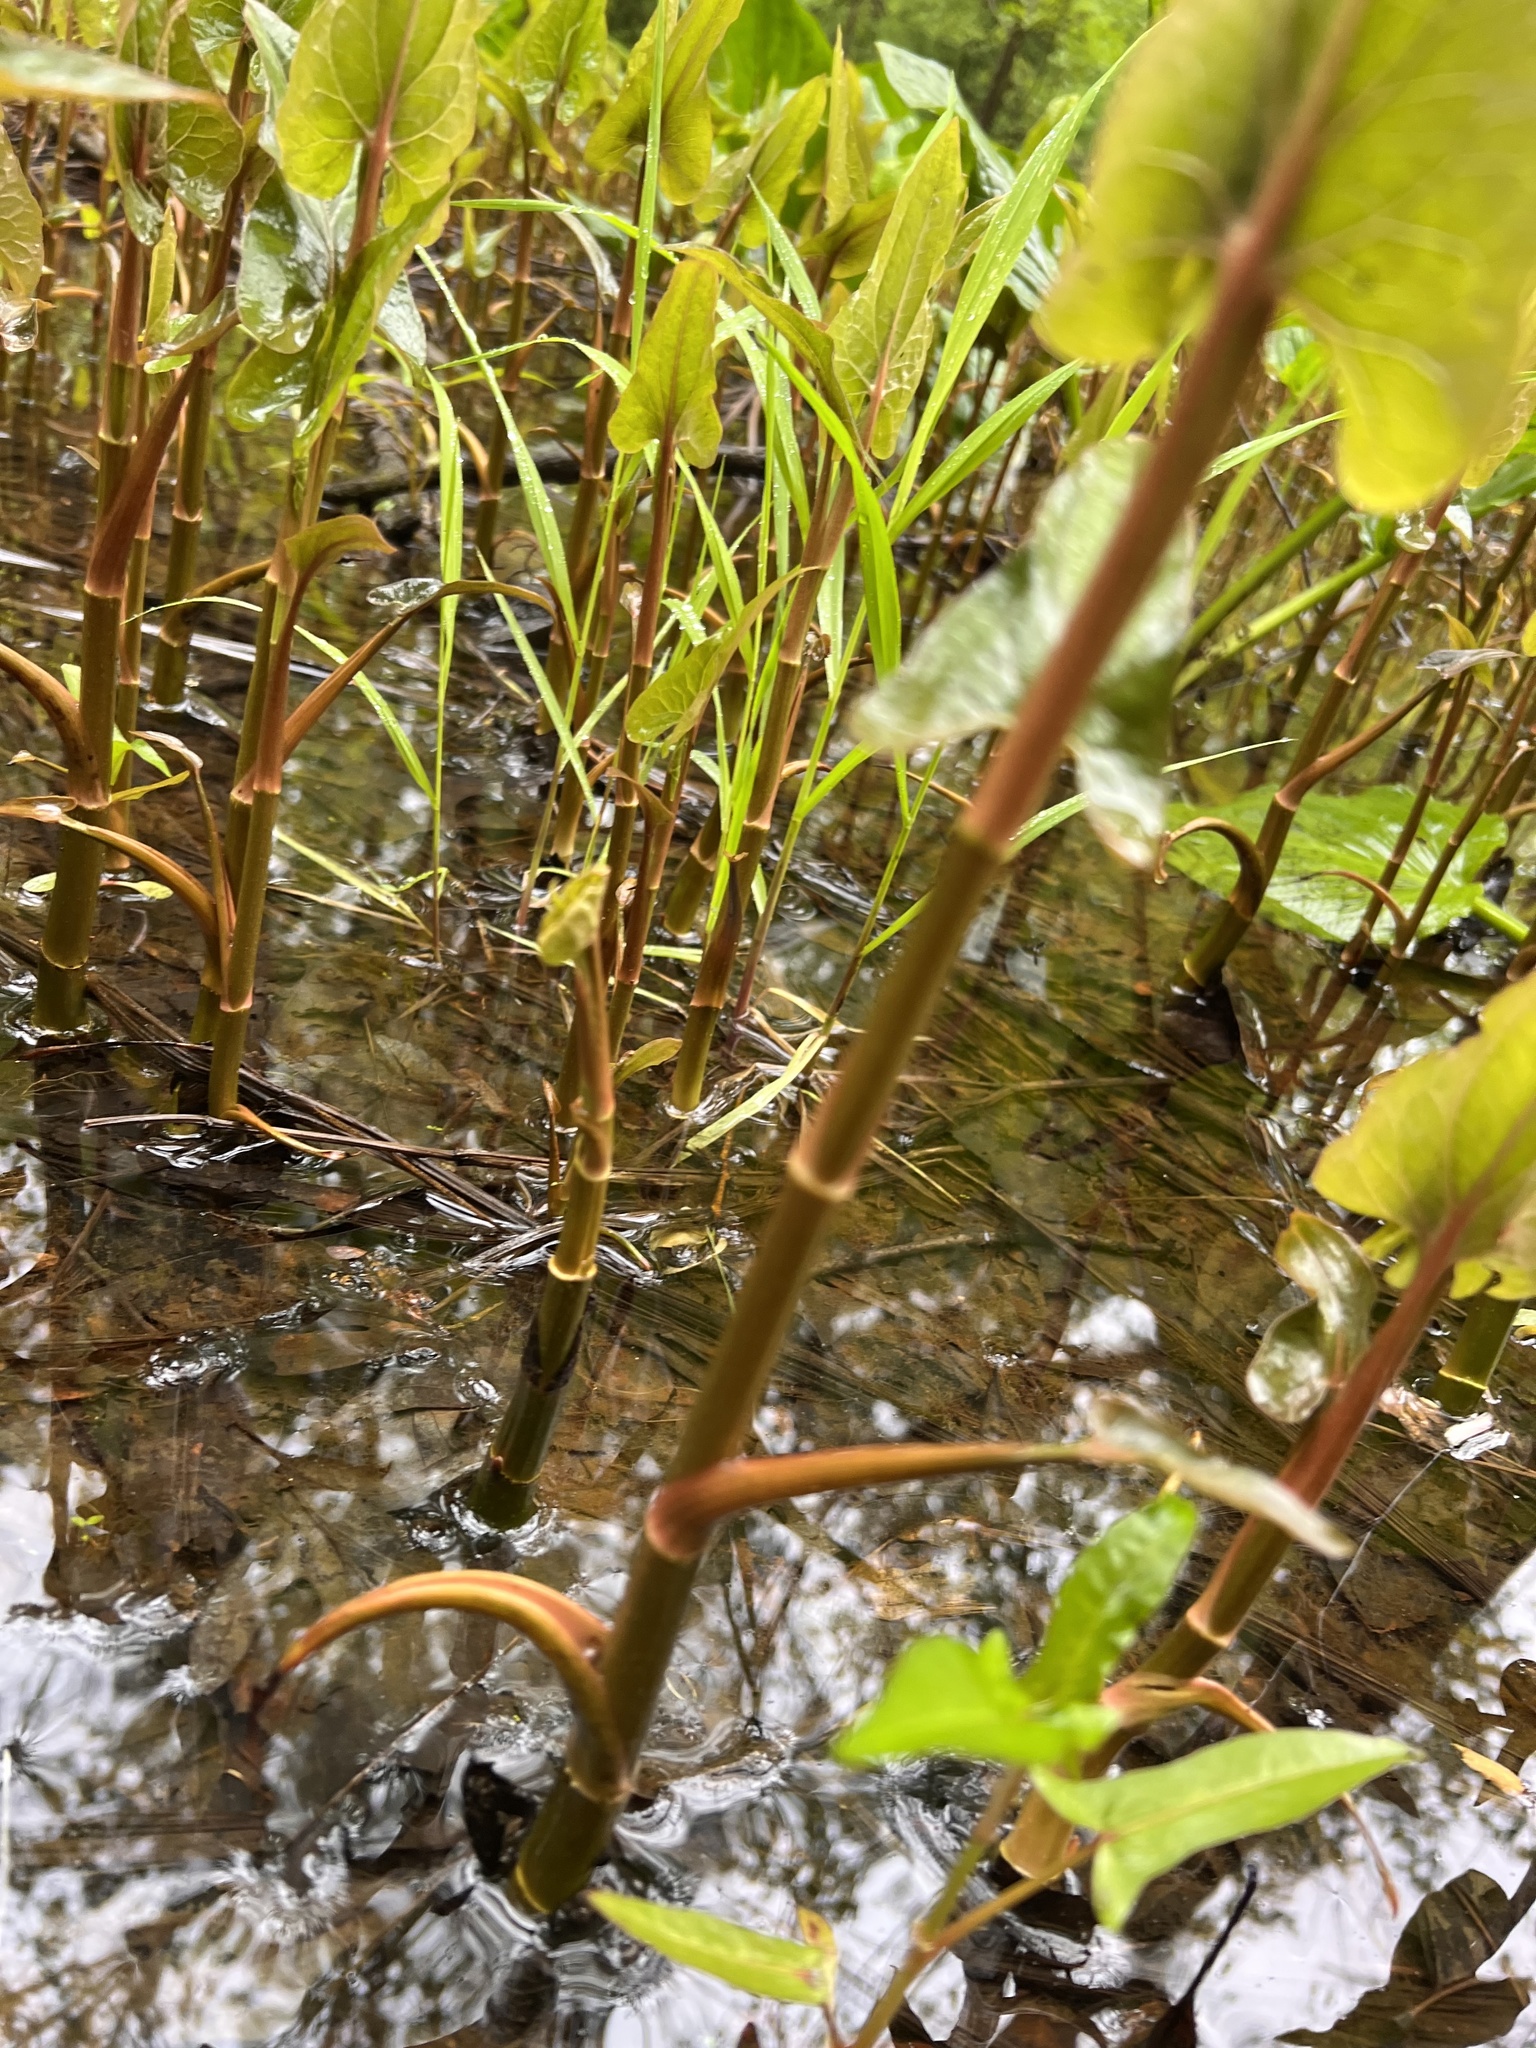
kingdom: Plantae
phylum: Tracheophyta
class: Magnoliopsida
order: Piperales
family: Saururaceae
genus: Saururus
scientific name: Saururus cernuus
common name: Lizard's-tail
